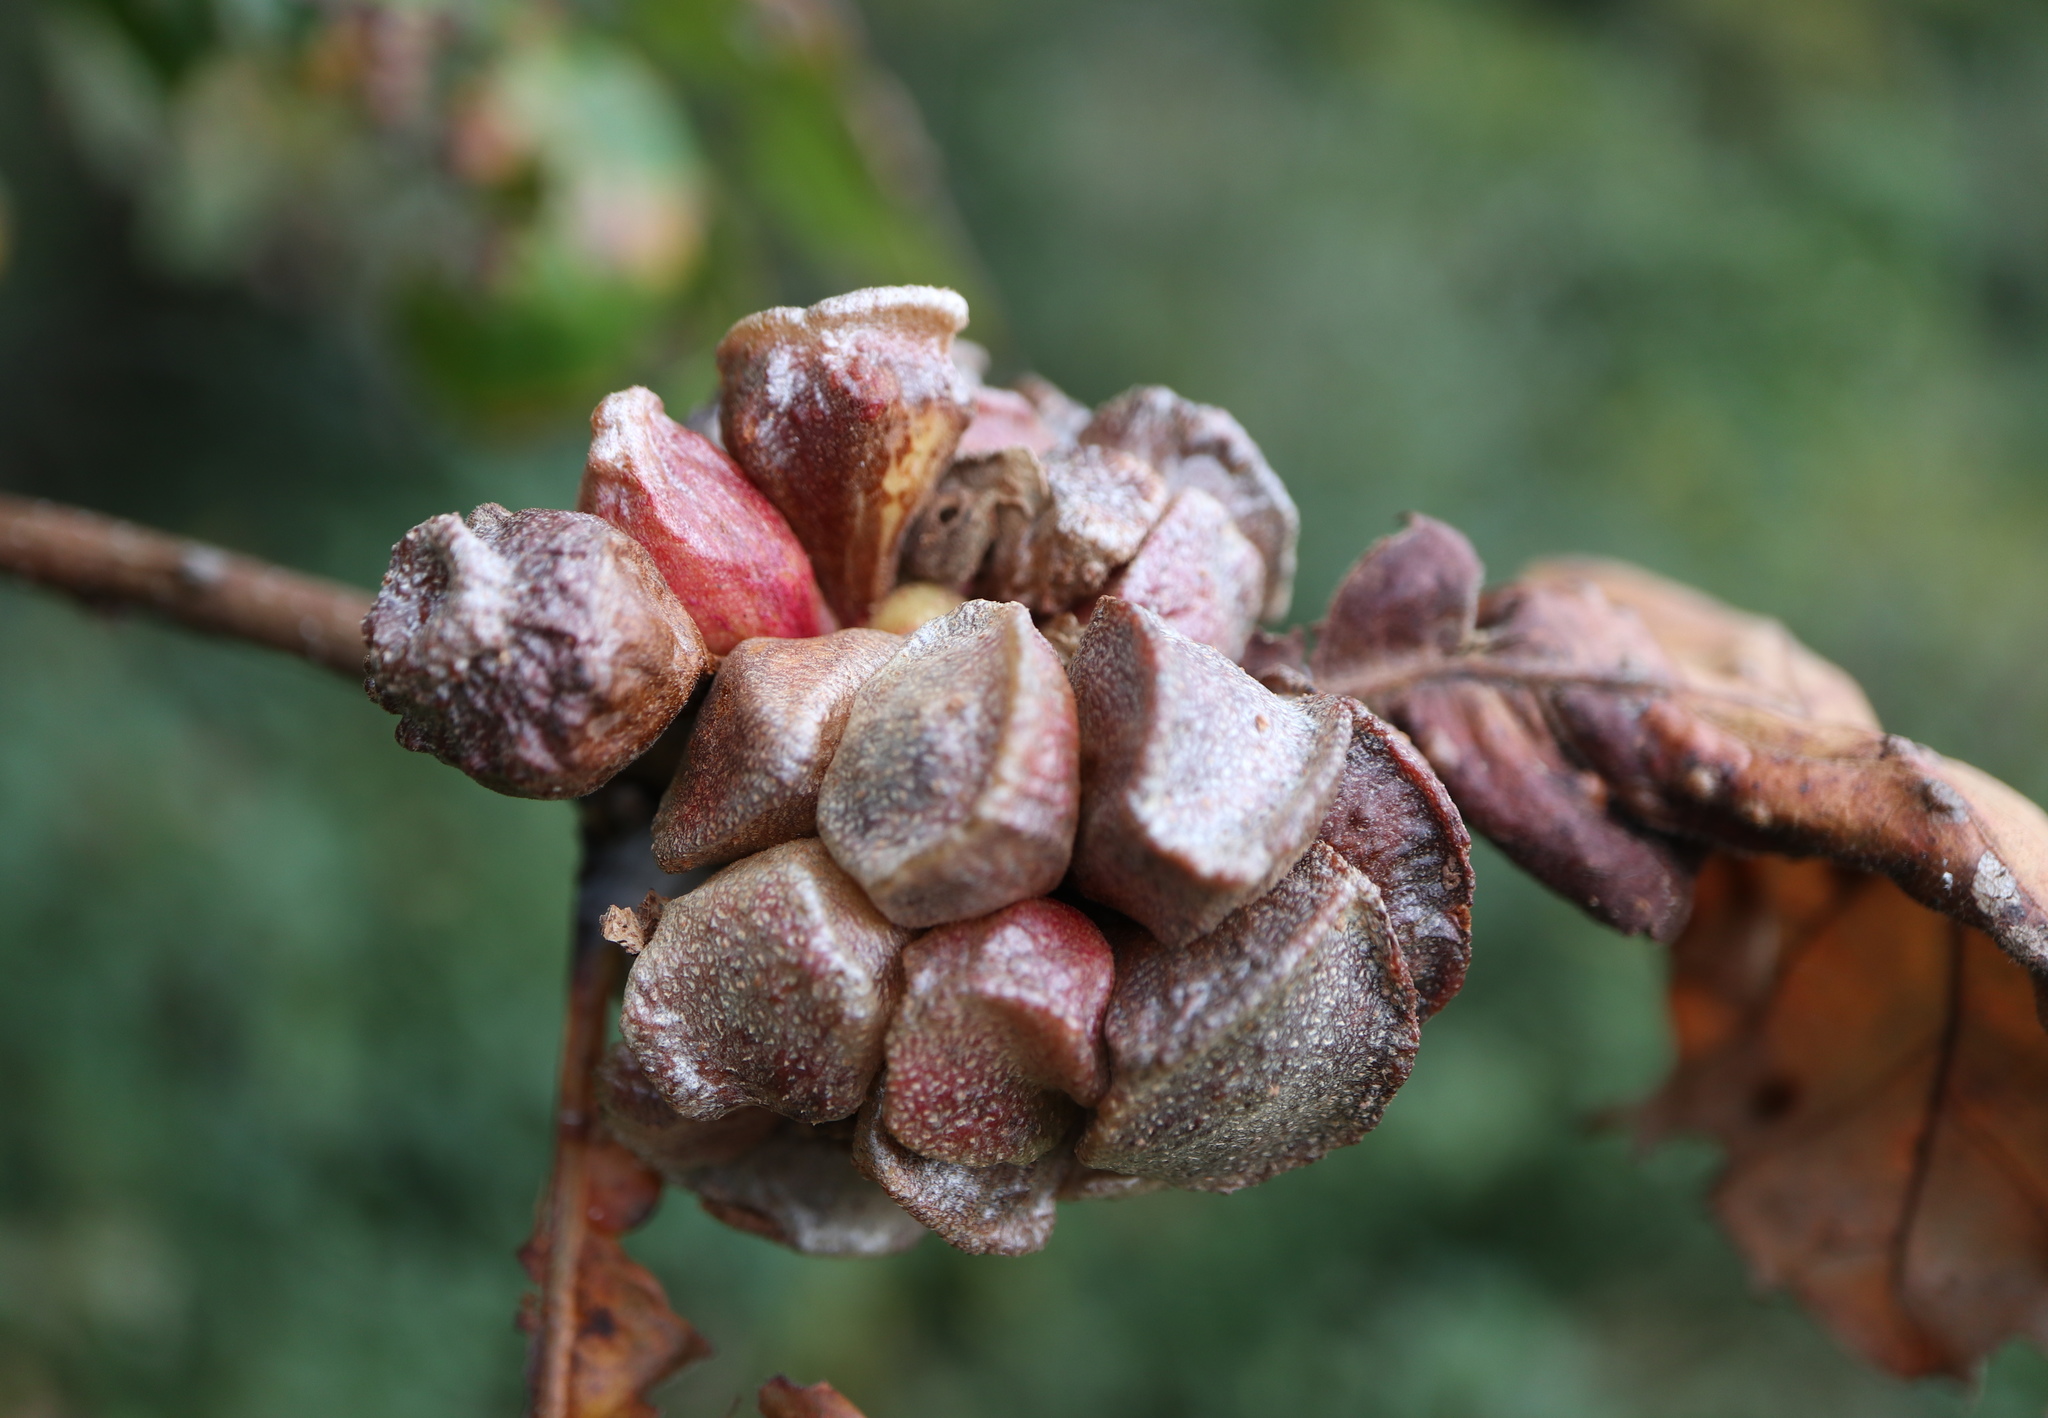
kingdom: Animalia
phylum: Arthropoda
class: Insecta
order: Hymenoptera
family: Cynipidae
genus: Andricus
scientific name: Andricus
